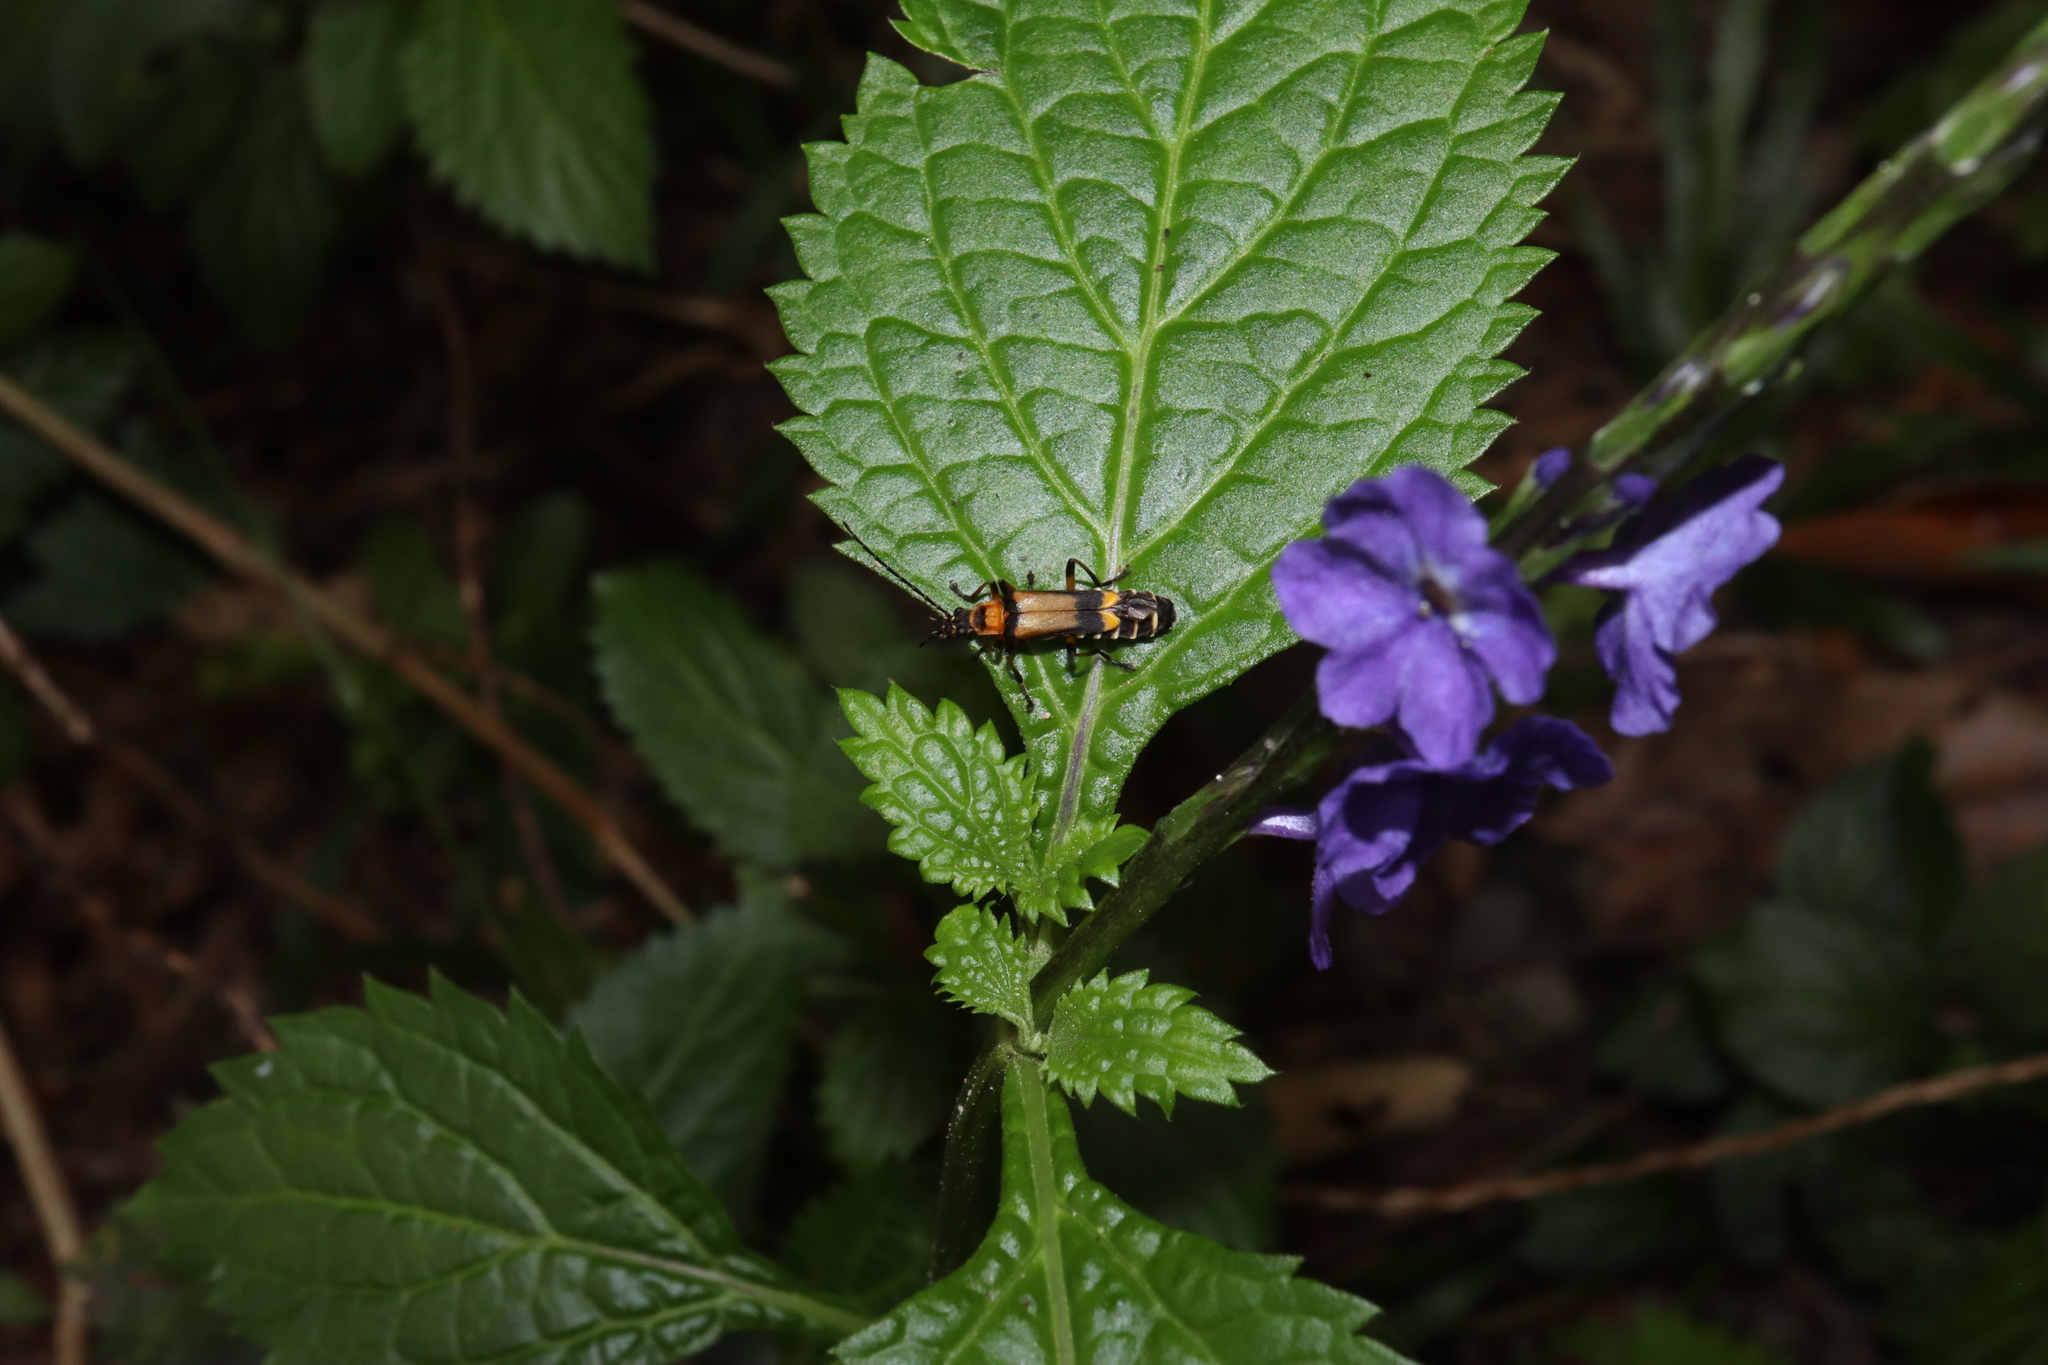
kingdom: Plantae
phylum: Tracheophyta
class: Magnoliopsida
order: Lamiales
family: Verbenaceae
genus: Stachytarpheta
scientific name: Stachytarpheta cayennensis
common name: Cayenne porterweed
